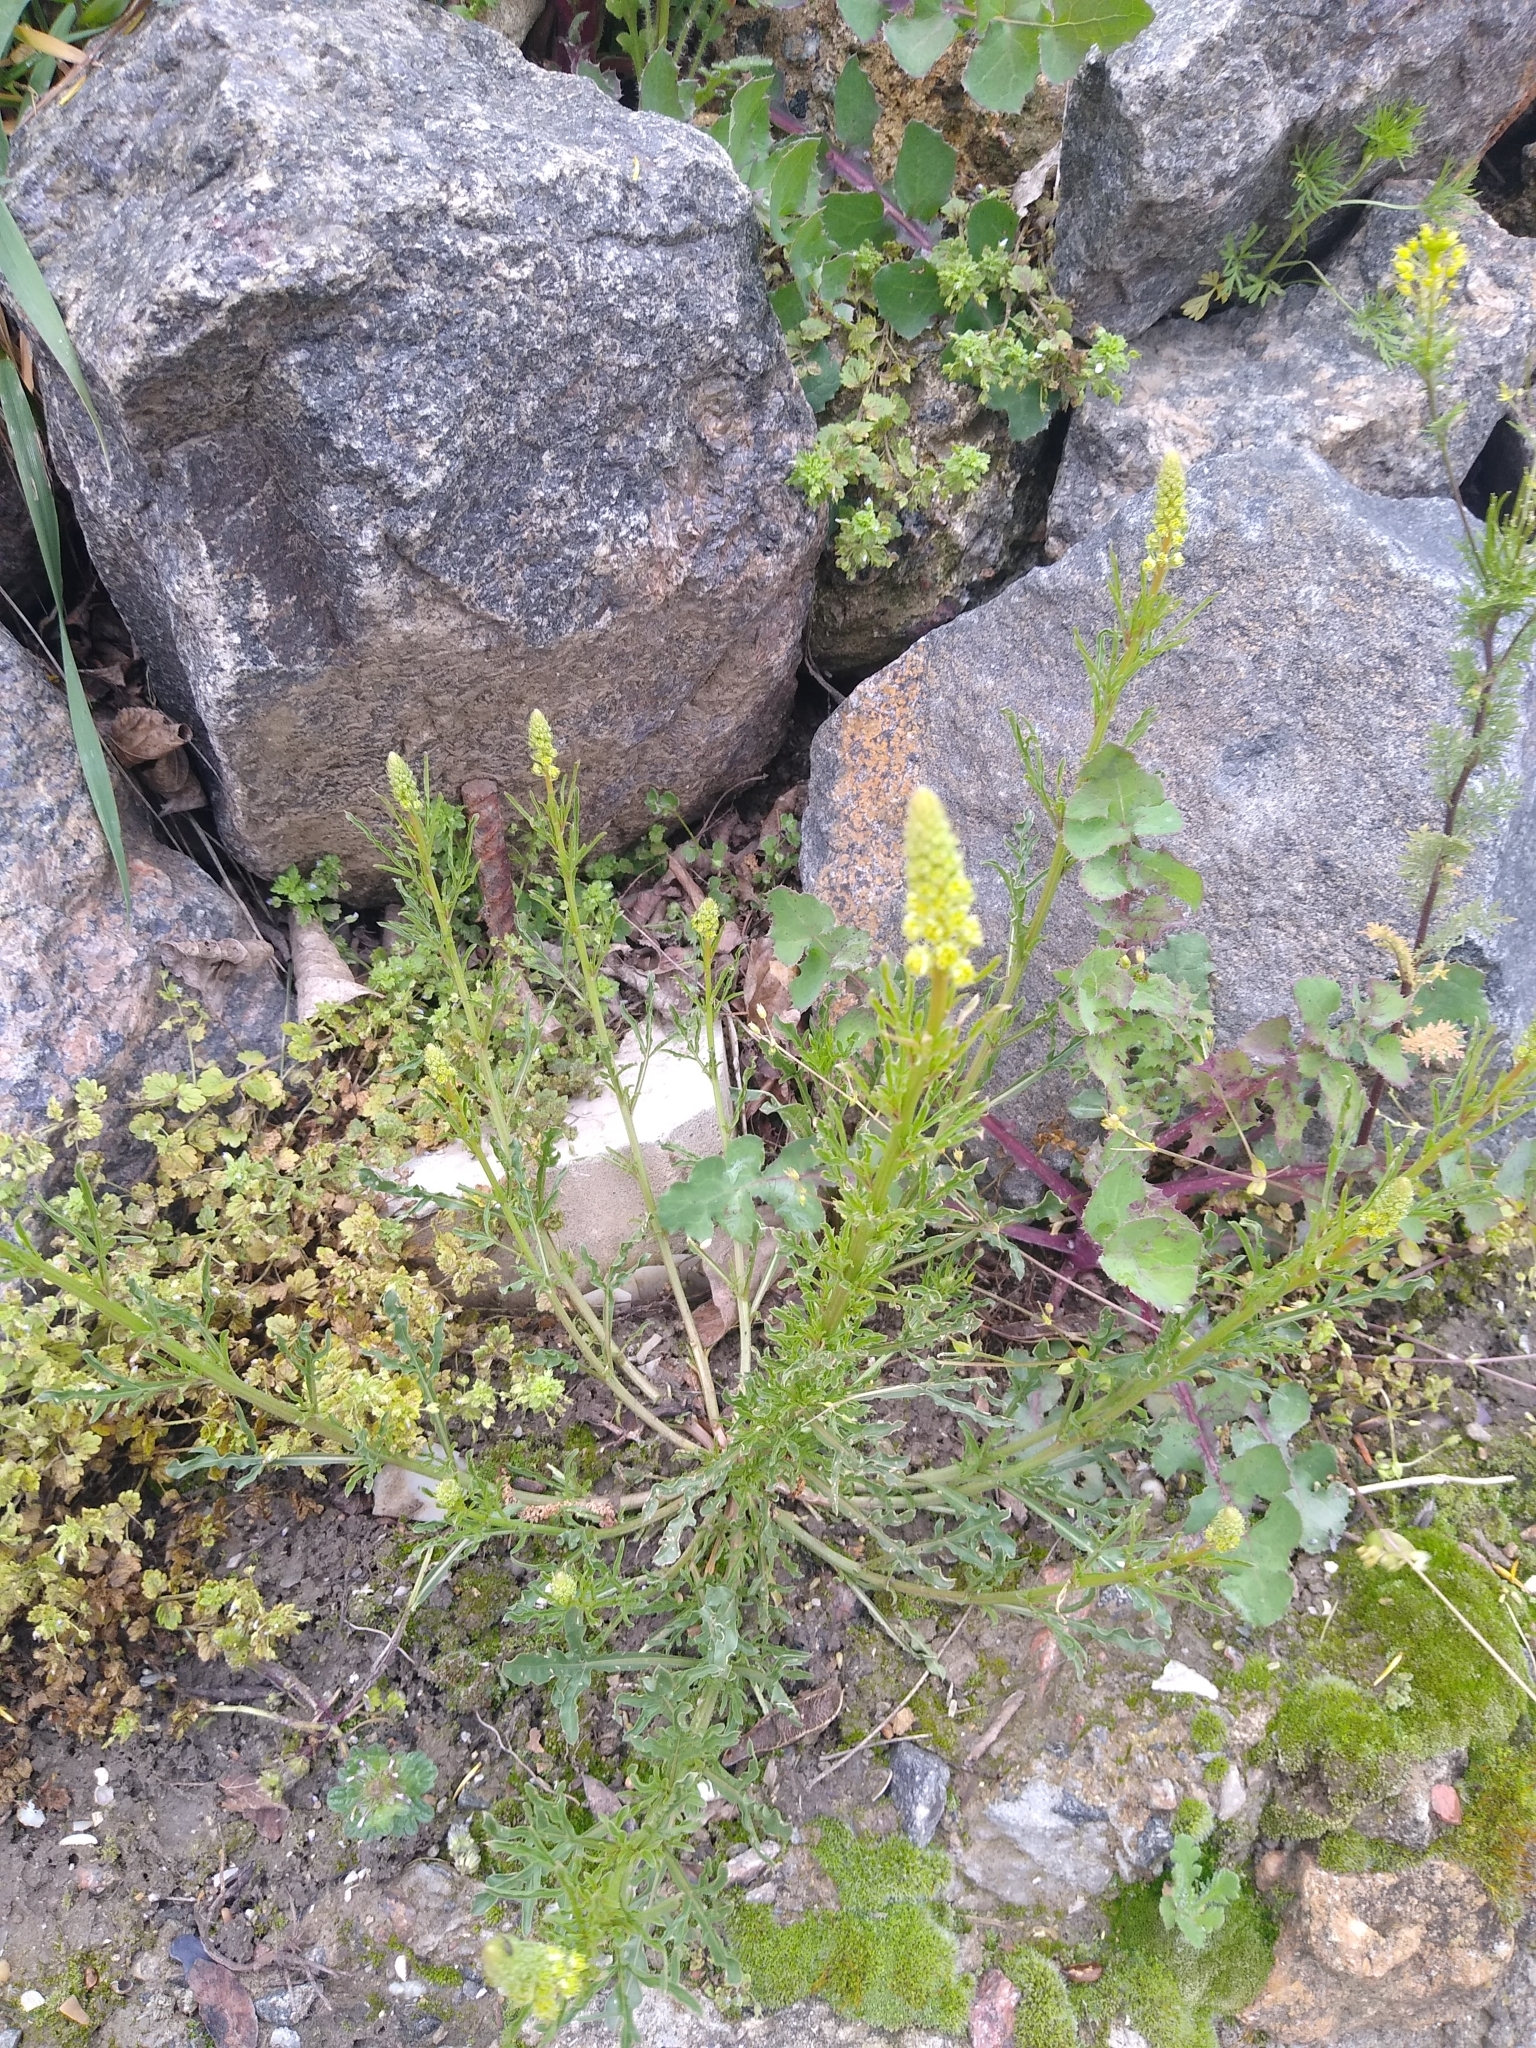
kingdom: Plantae
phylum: Tracheophyta
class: Magnoliopsida
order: Brassicales
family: Resedaceae
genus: Reseda
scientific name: Reseda lutea
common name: Wild mignonette
